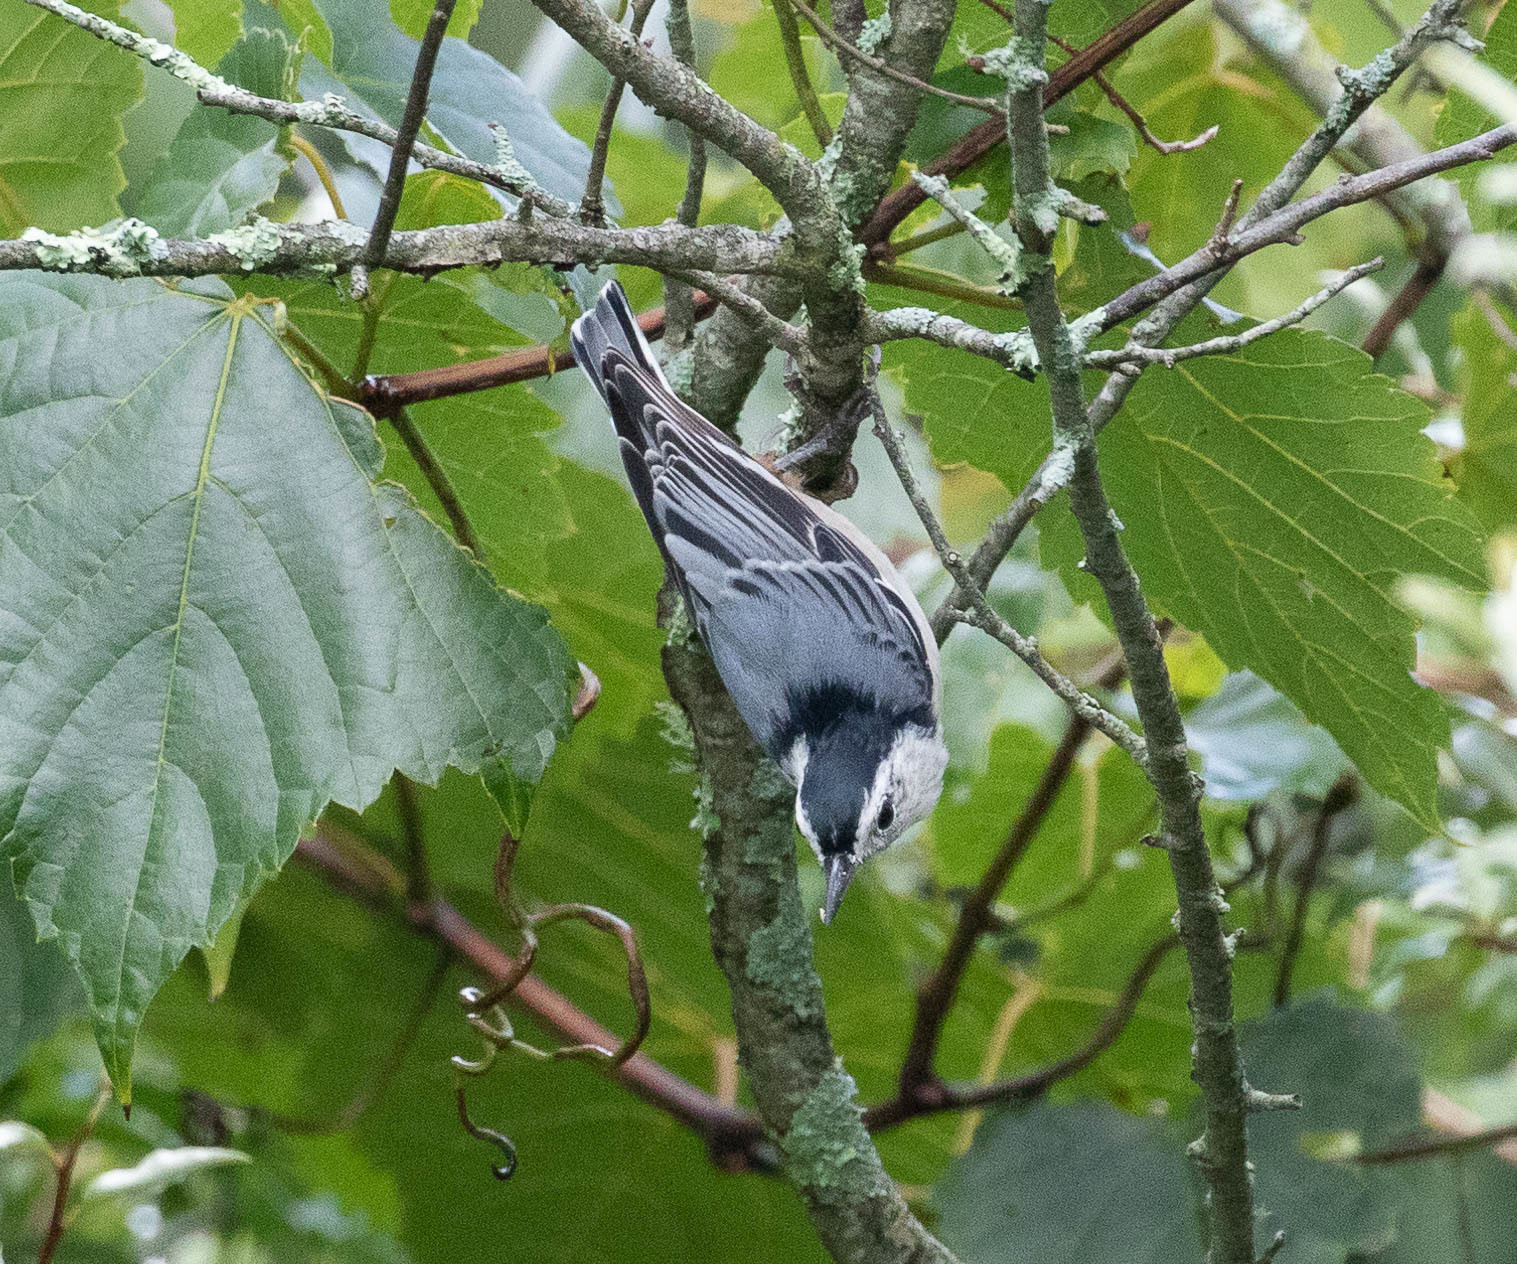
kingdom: Animalia
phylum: Chordata
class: Aves
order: Passeriformes
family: Paridae
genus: Poecile
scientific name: Poecile atricapillus
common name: Black-capped chickadee
